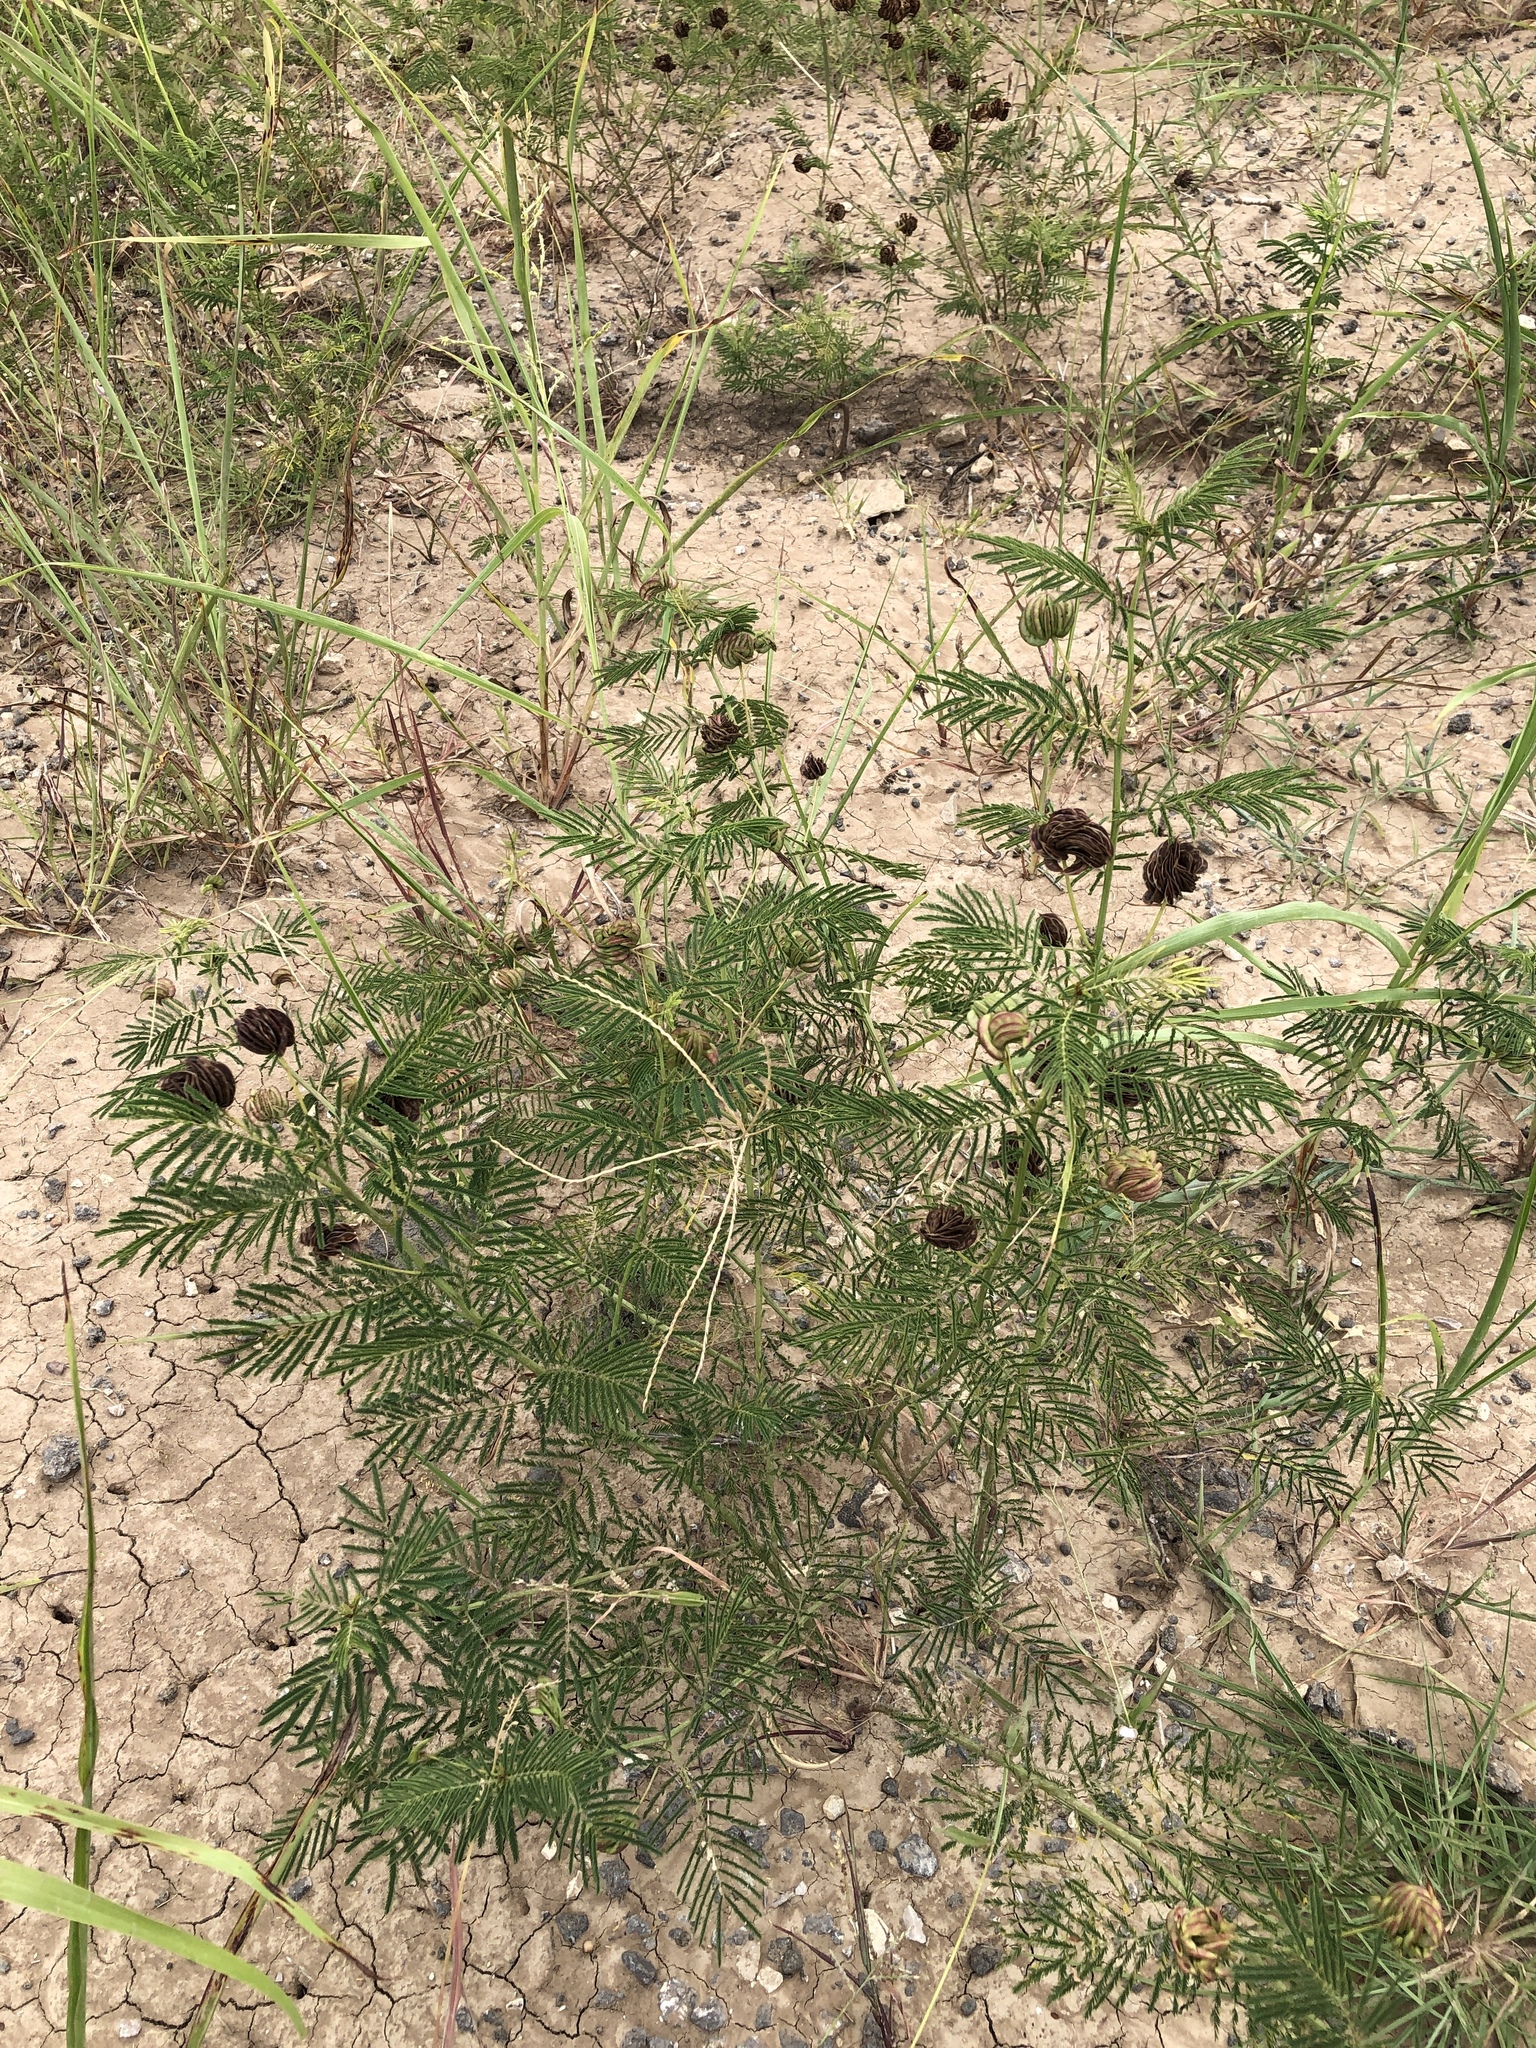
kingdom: Plantae
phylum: Tracheophyta
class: Magnoliopsida
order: Fabales
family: Fabaceae
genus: Desmanthus
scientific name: Desmanthus illinoensis
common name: Illinois bundle-flower
